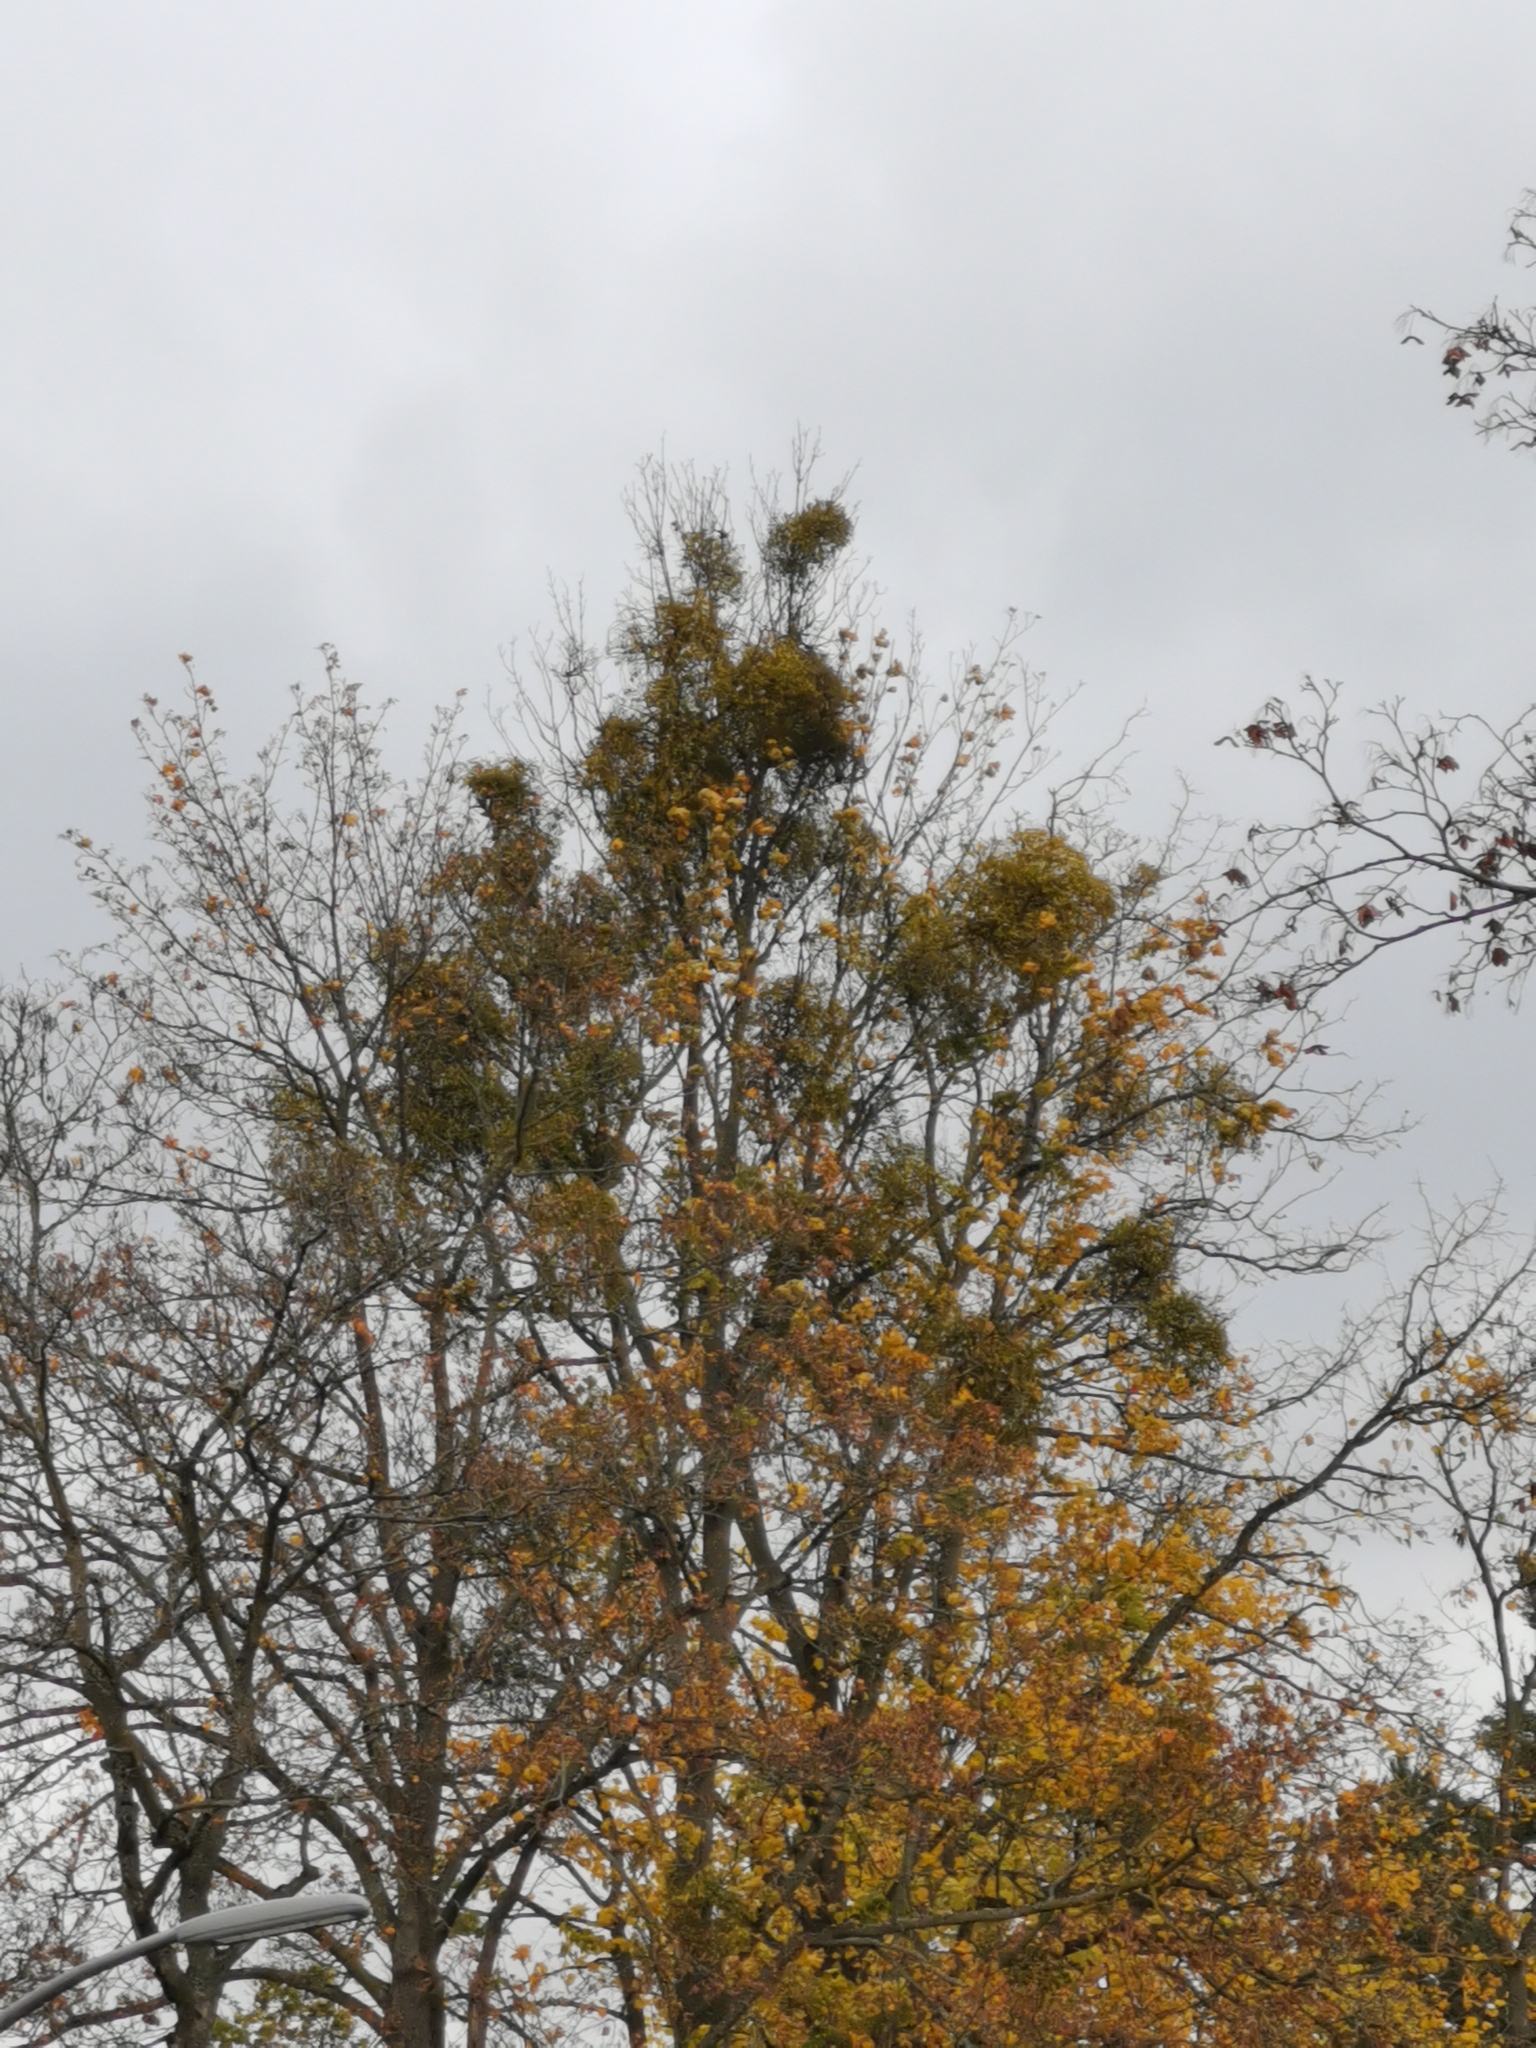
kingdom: Plantae
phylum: Tracheophyta
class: Magnoliopsida
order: Santalales
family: Viscaceae
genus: Viscum
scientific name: Viscum album
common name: Mistletoe
